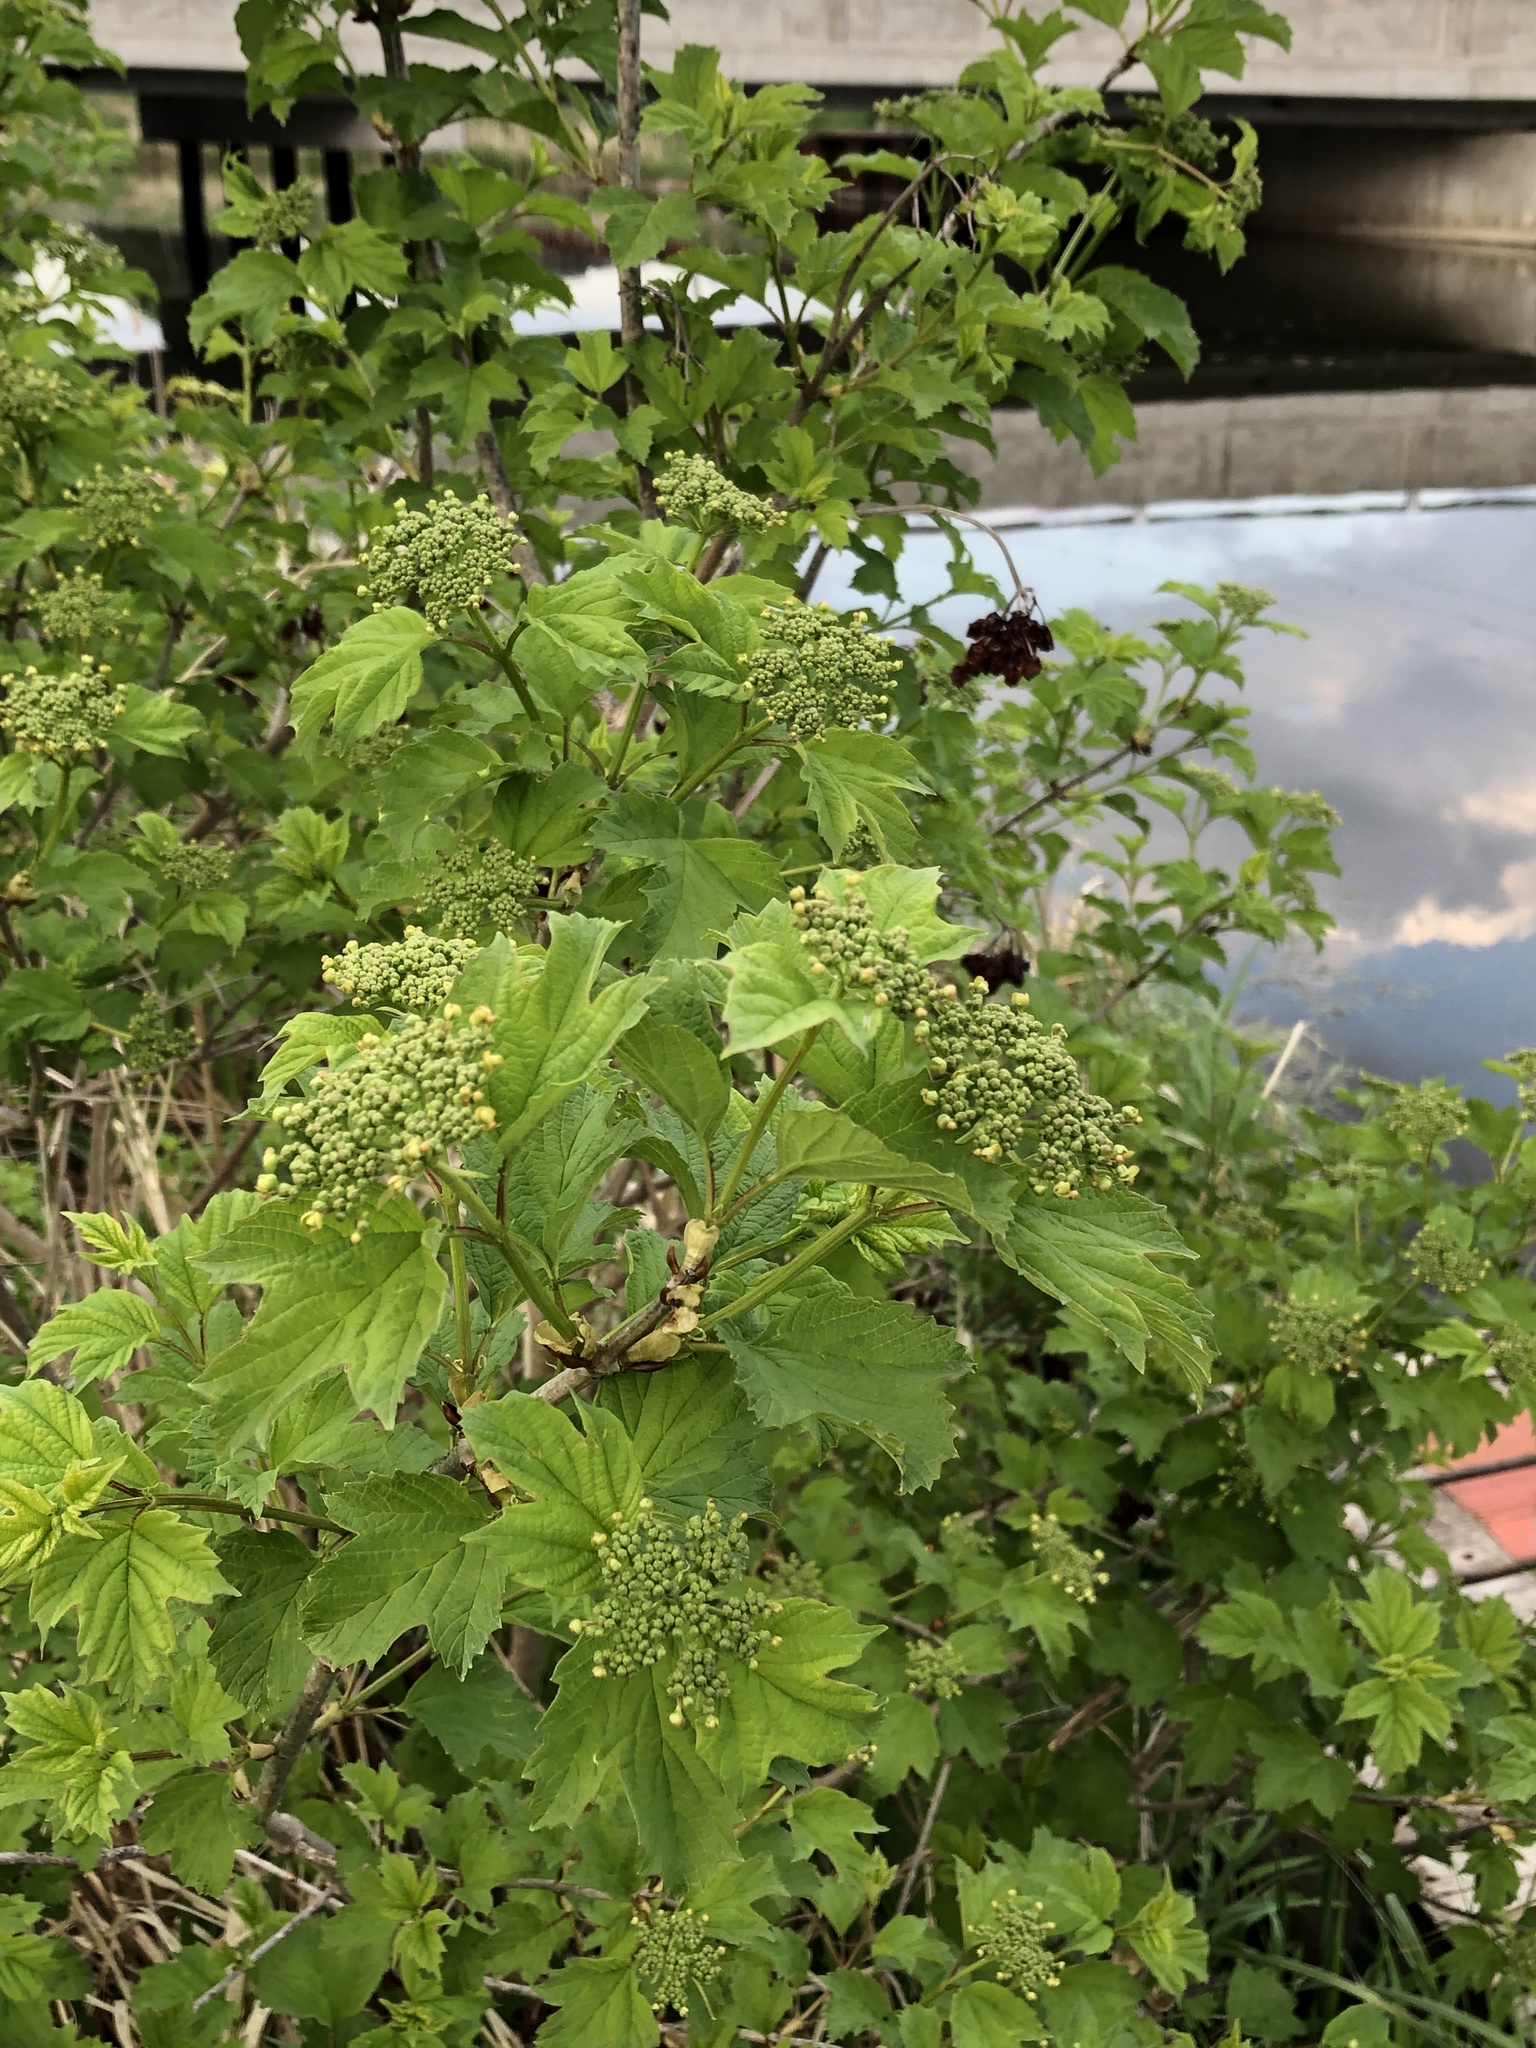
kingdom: Plantae
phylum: Tracheophyta
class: Magnoliopsida
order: Dipsacales
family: Viburnaceae
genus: Viburnum
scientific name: Viburnum opulus
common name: Guelder-rose
